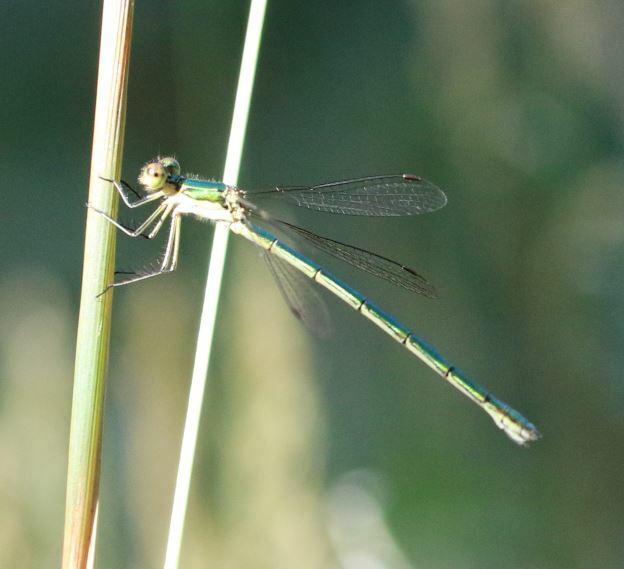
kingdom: Animalia
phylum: Arthropoda
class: Insecta
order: Odonata
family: Lestidae
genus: Lestes
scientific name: Lestes virens
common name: Small emerald spreadwing
